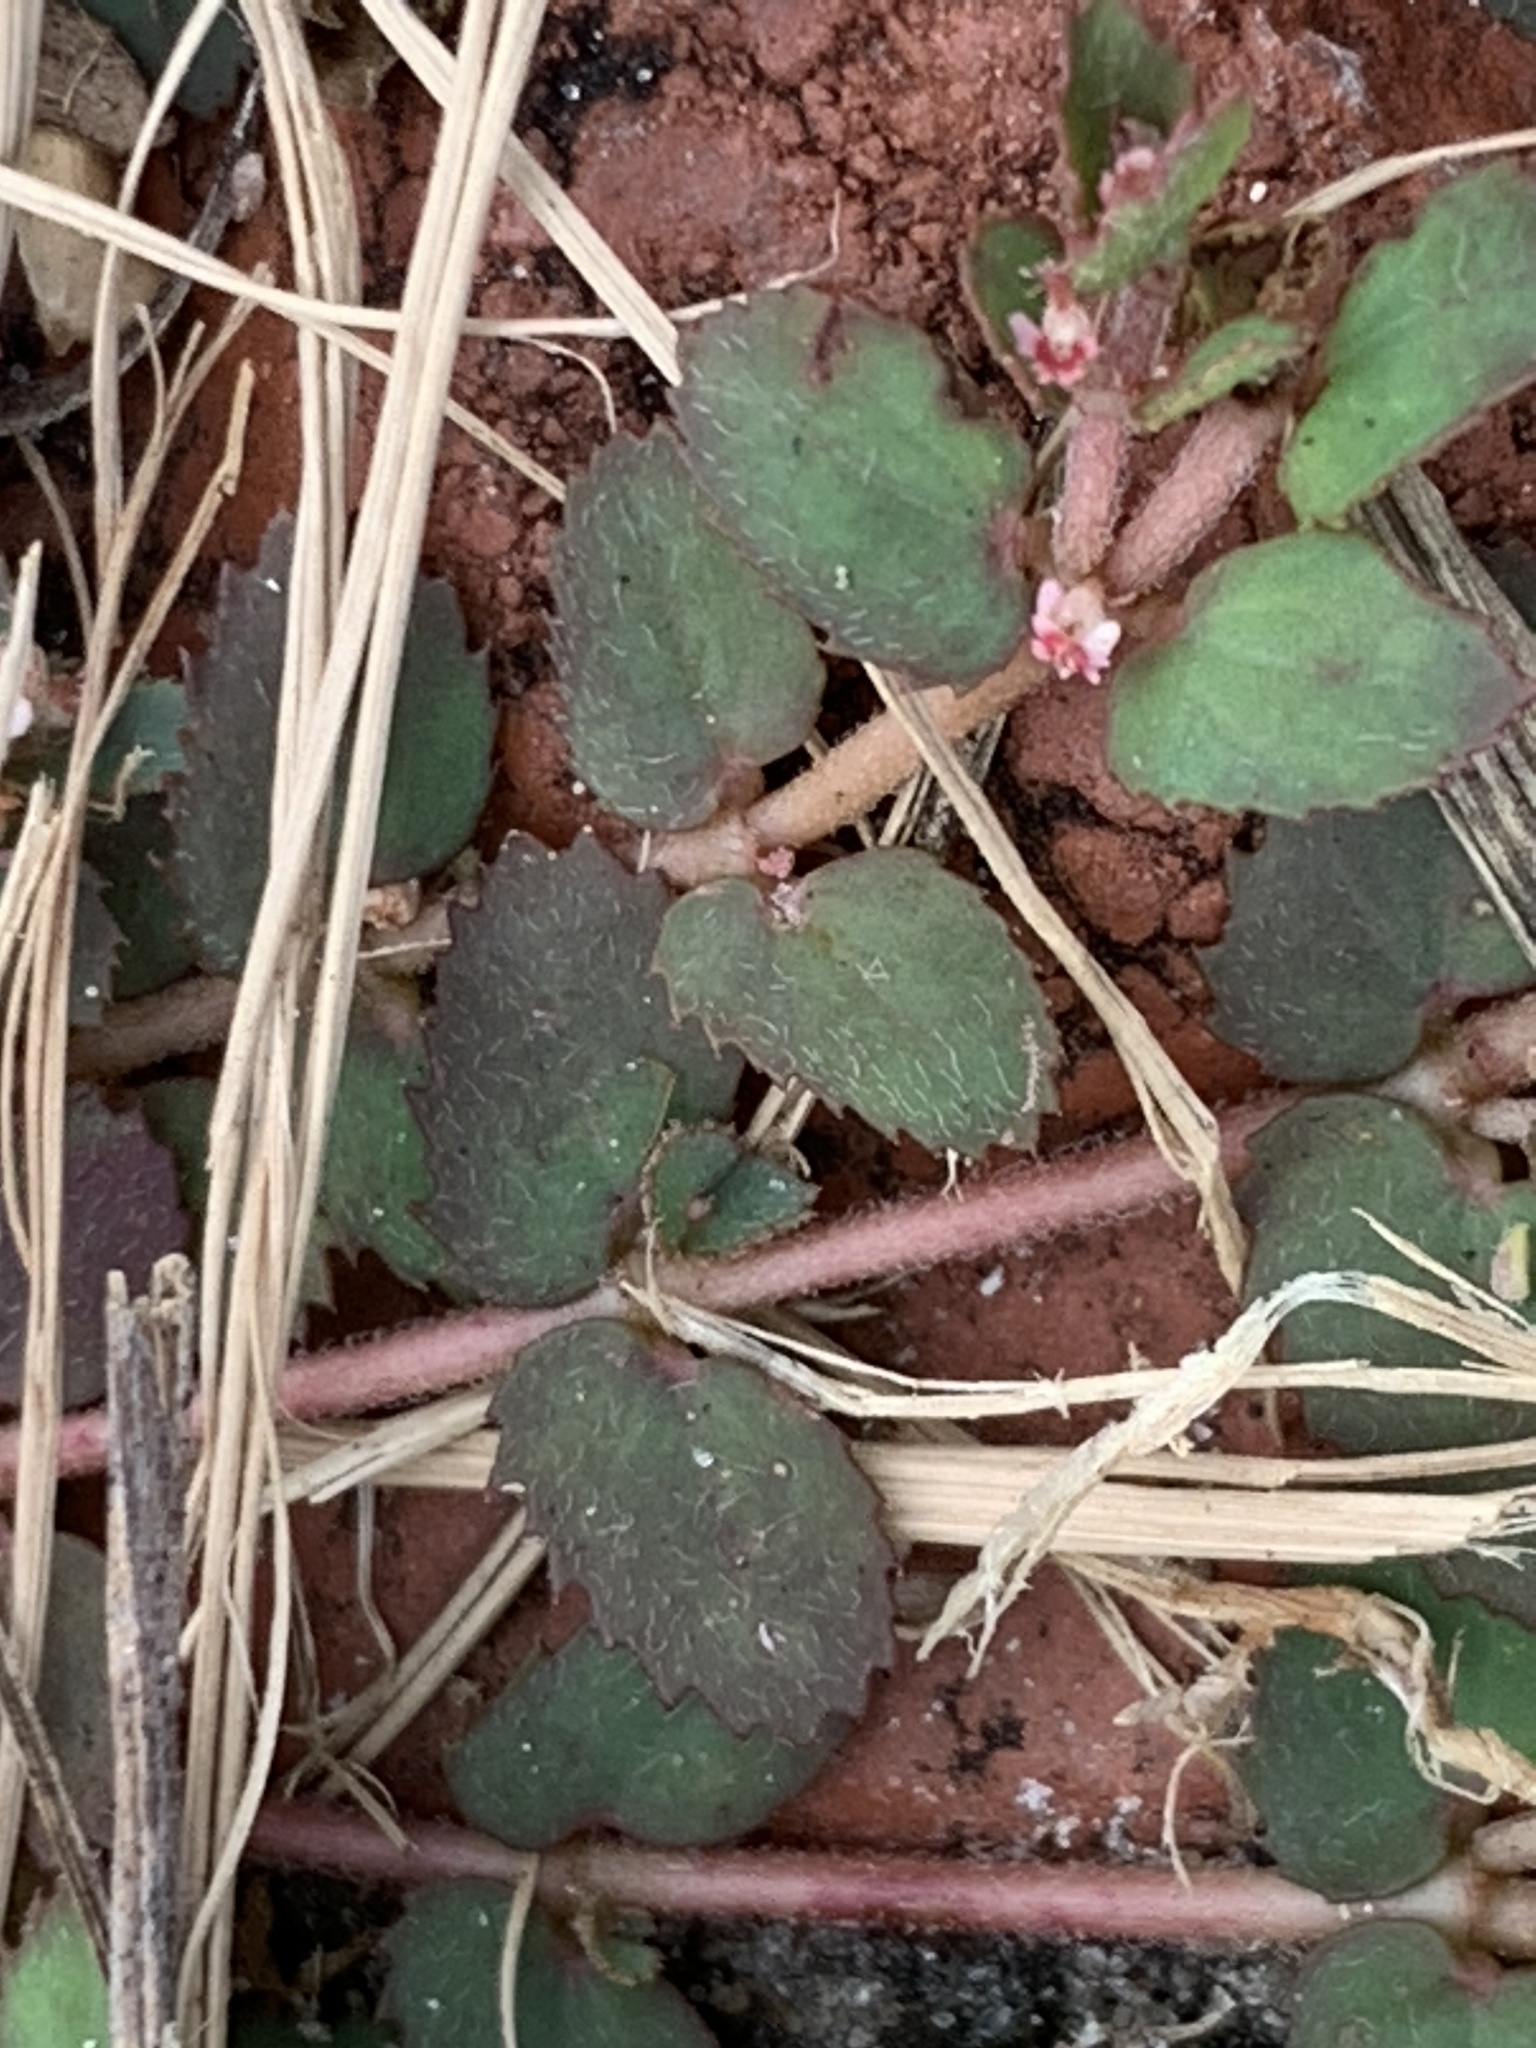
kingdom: Plantae
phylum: Tracheophyta
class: Magnoliopsida
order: Malpighiales
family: Euphorbiaceae
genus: Euphorbia
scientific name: Euphorbia thymifolia
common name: Gulf sandmat
